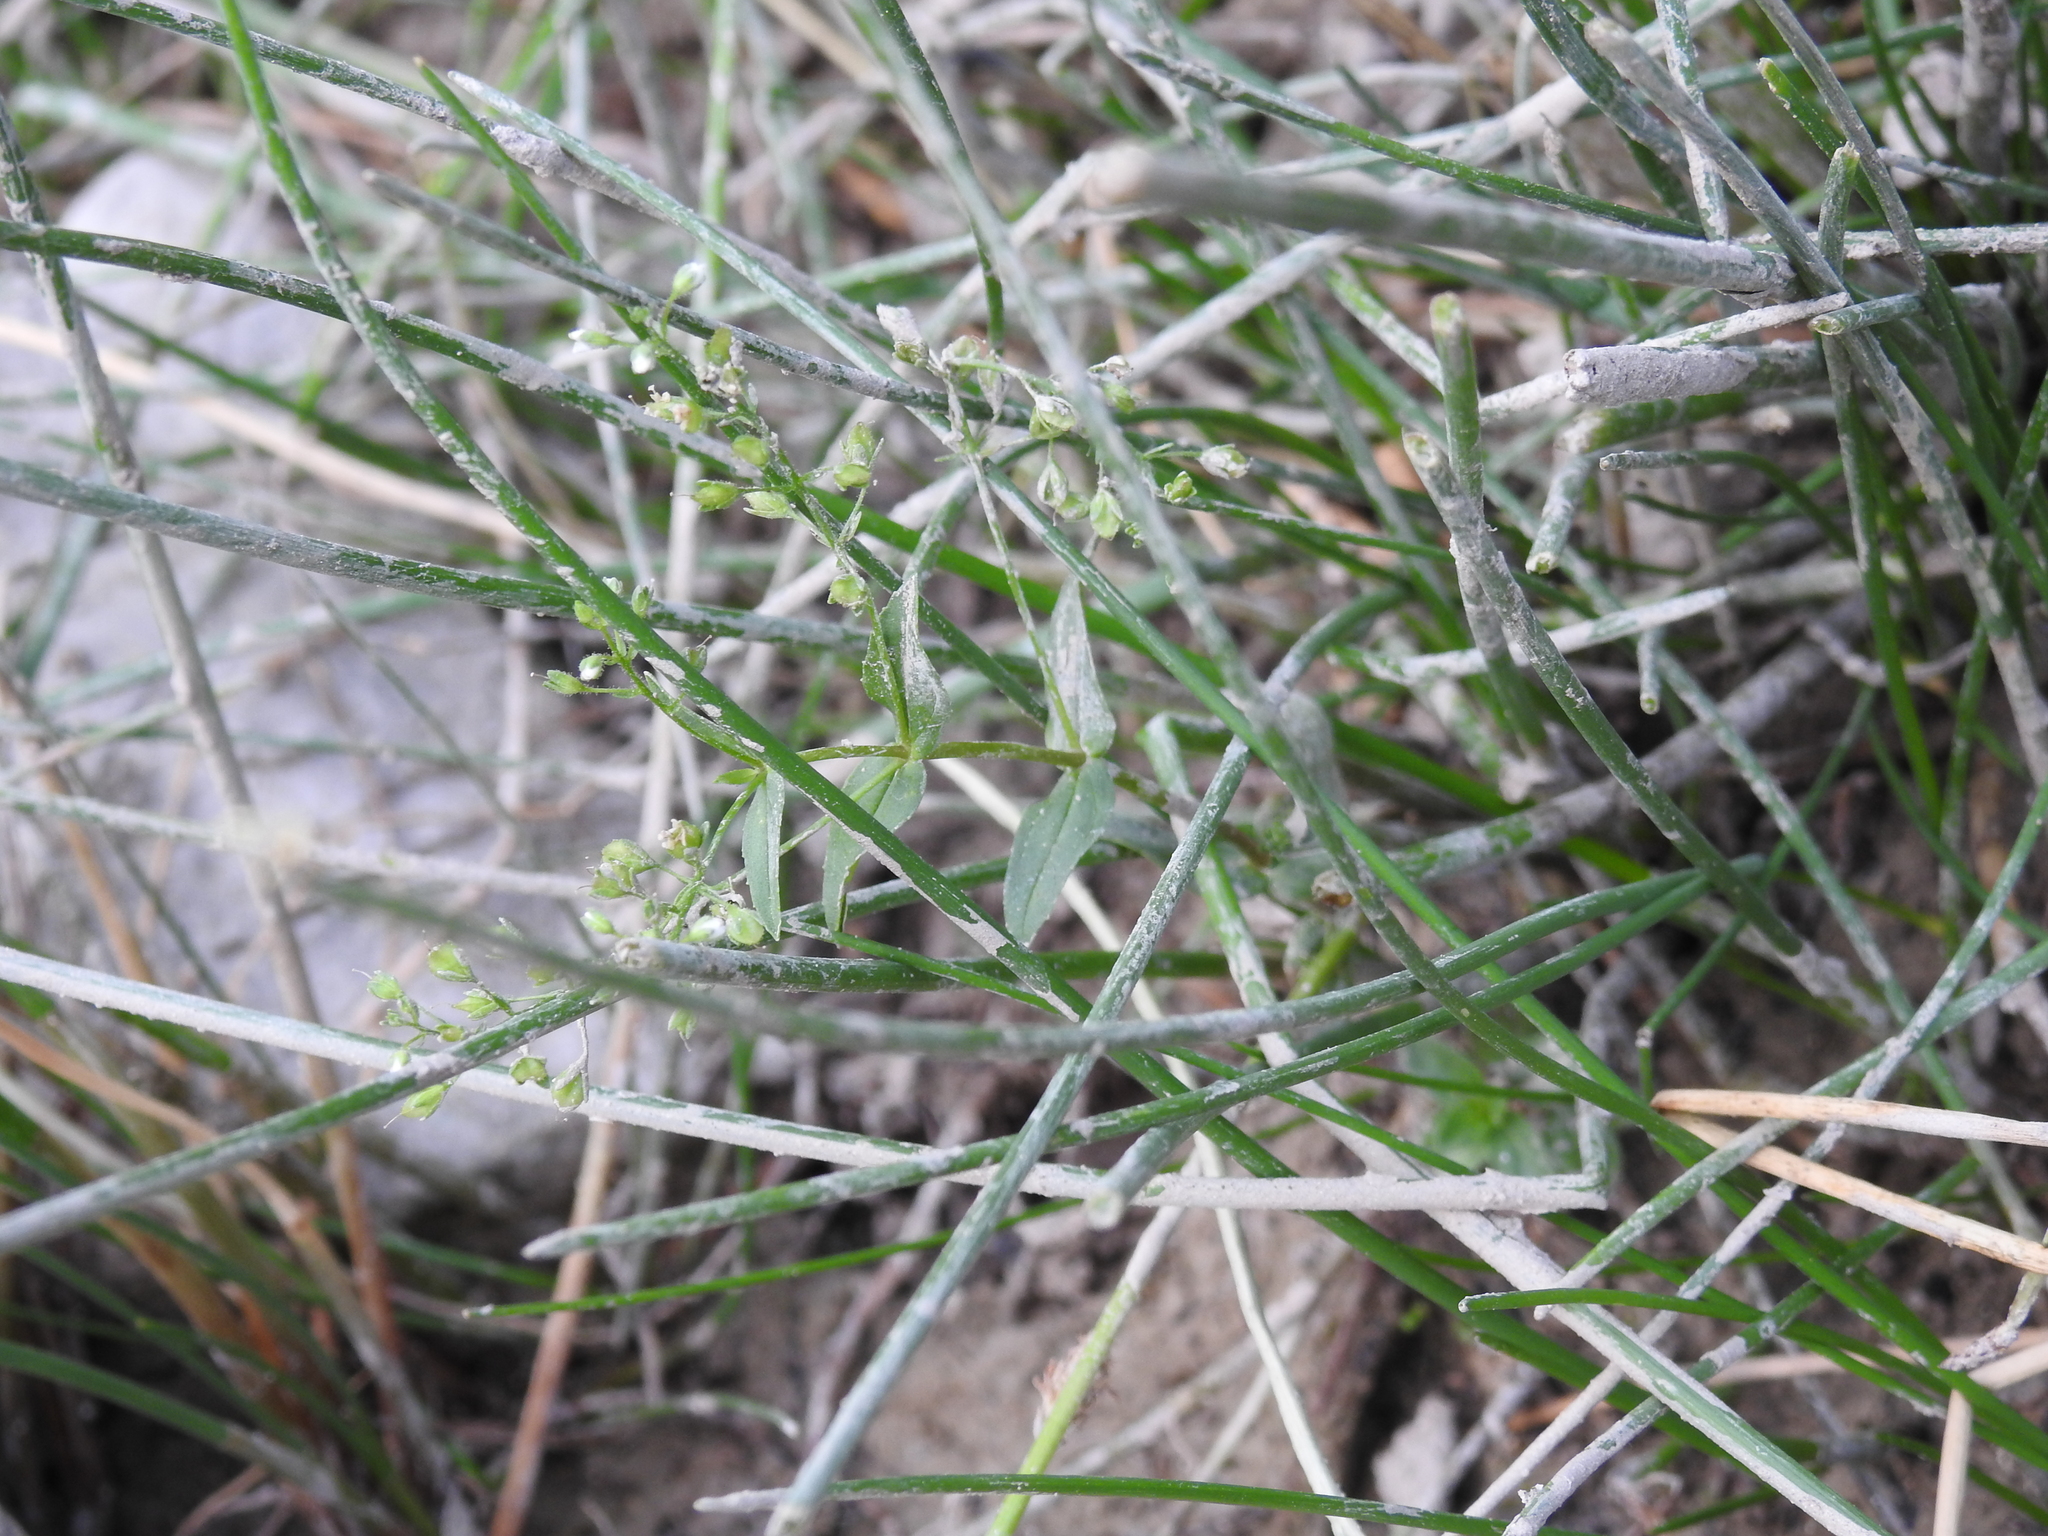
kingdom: Plantae
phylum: Tracheophyta
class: Magnoliopsida
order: Lamiales
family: Plantaginaceae
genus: Veronica
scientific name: Veronica anagalloides
